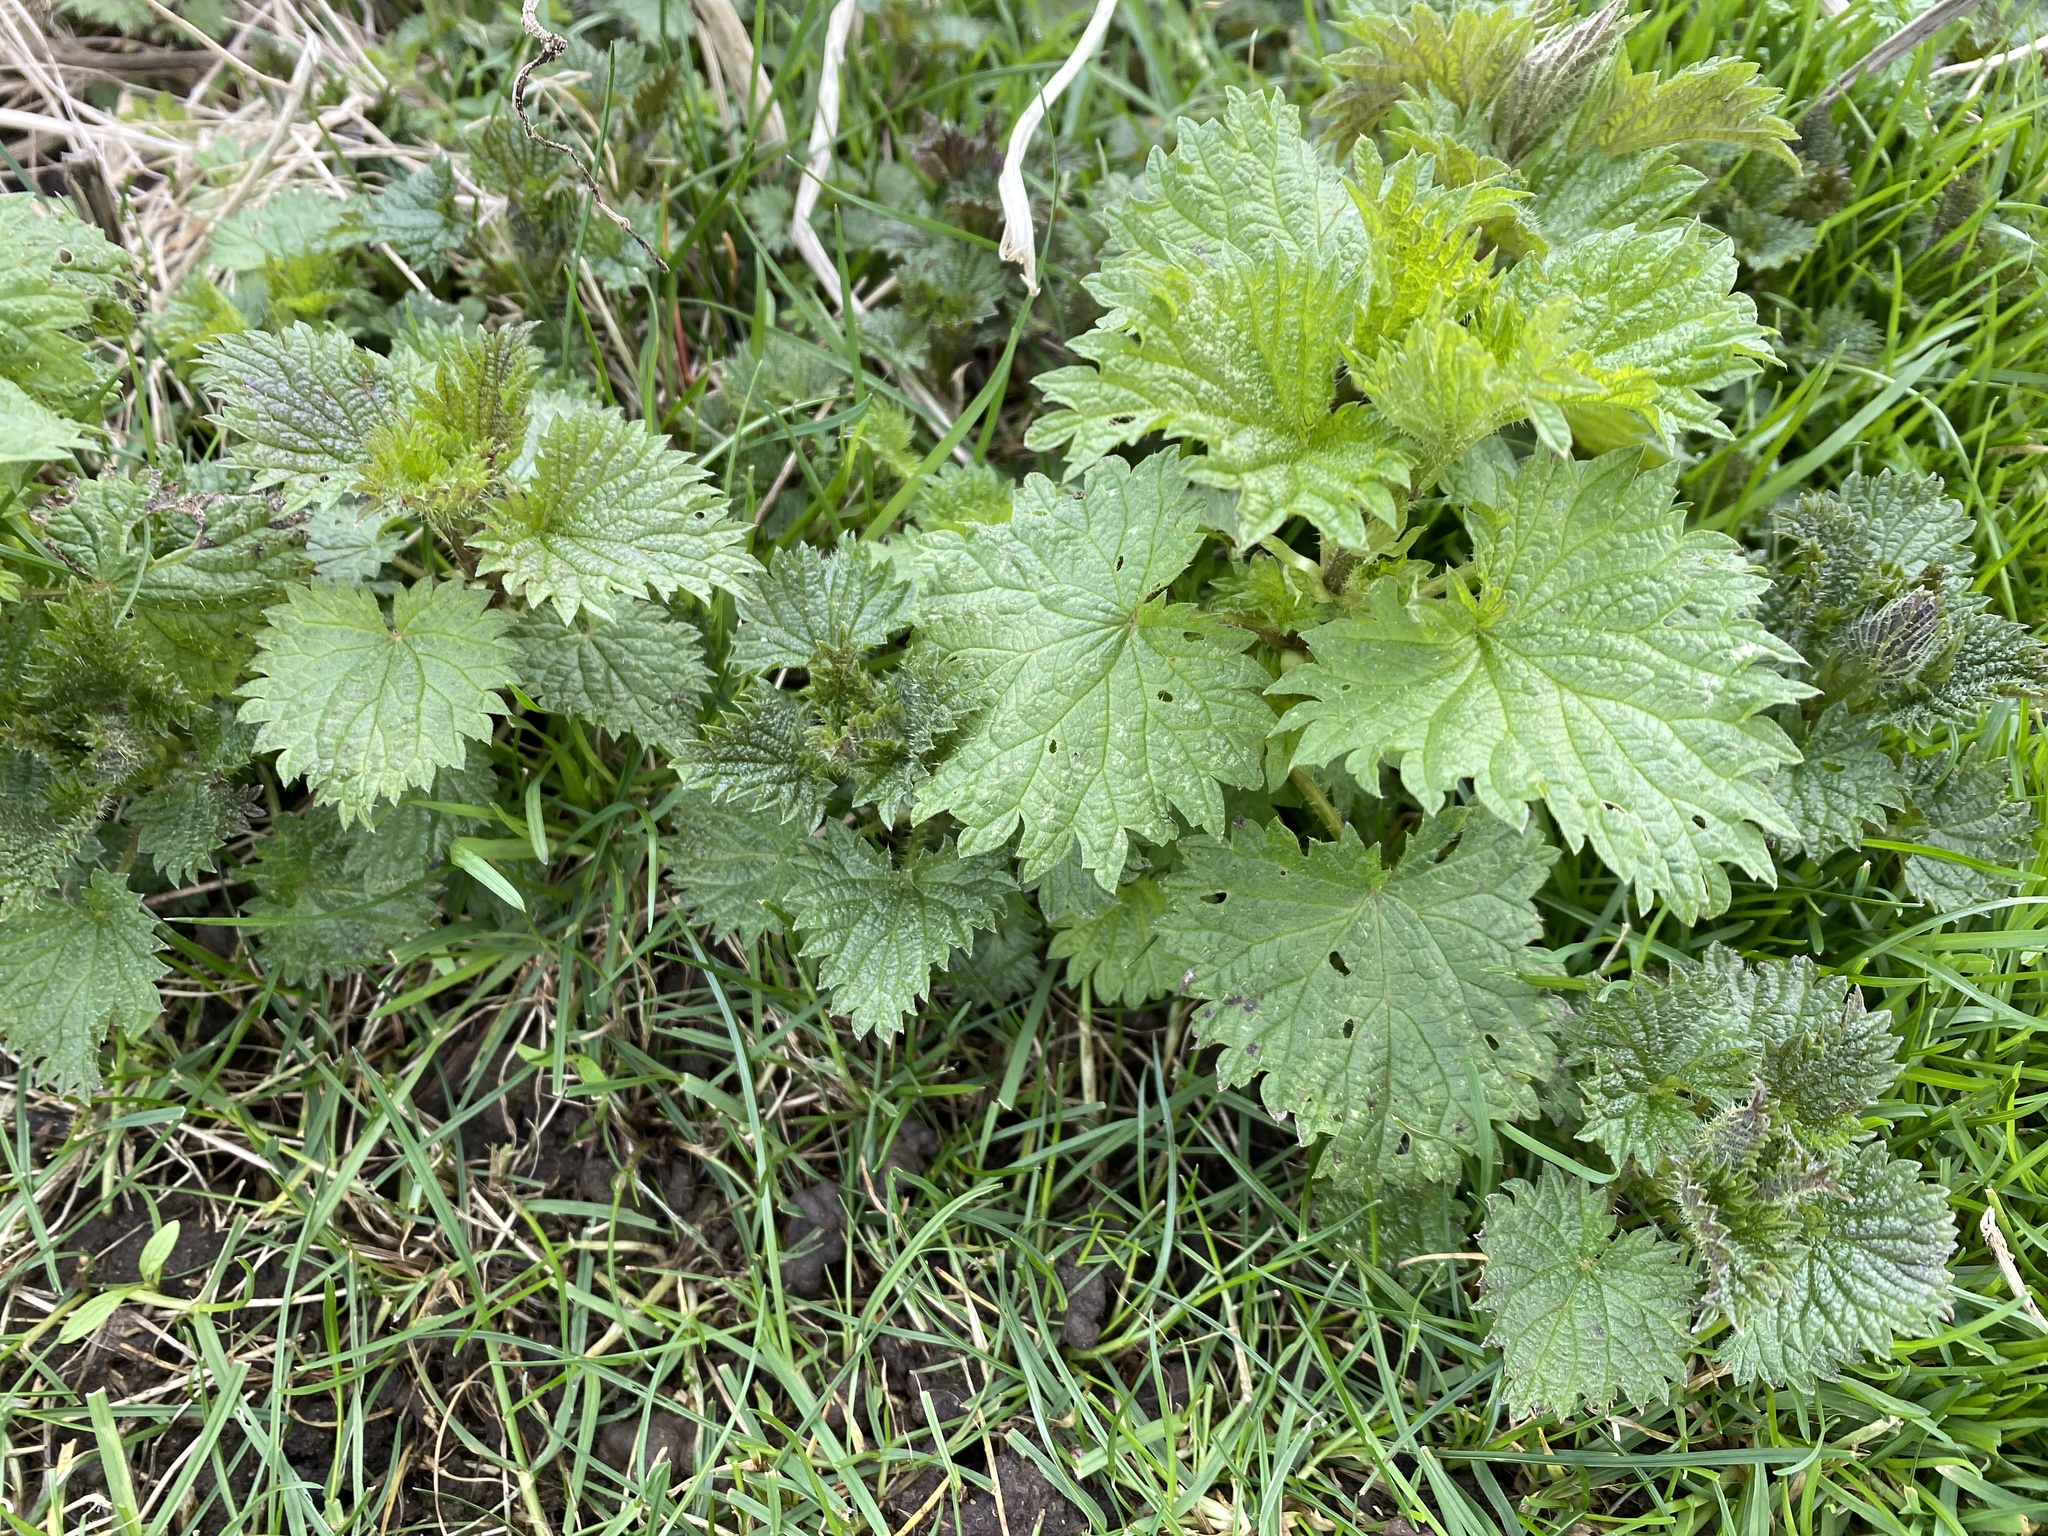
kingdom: Plantae
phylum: Tracheophyta
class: Magnoliopsida
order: Rosales
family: Urticaceae
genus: Urtica
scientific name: Urtica dioica
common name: Common nettle
